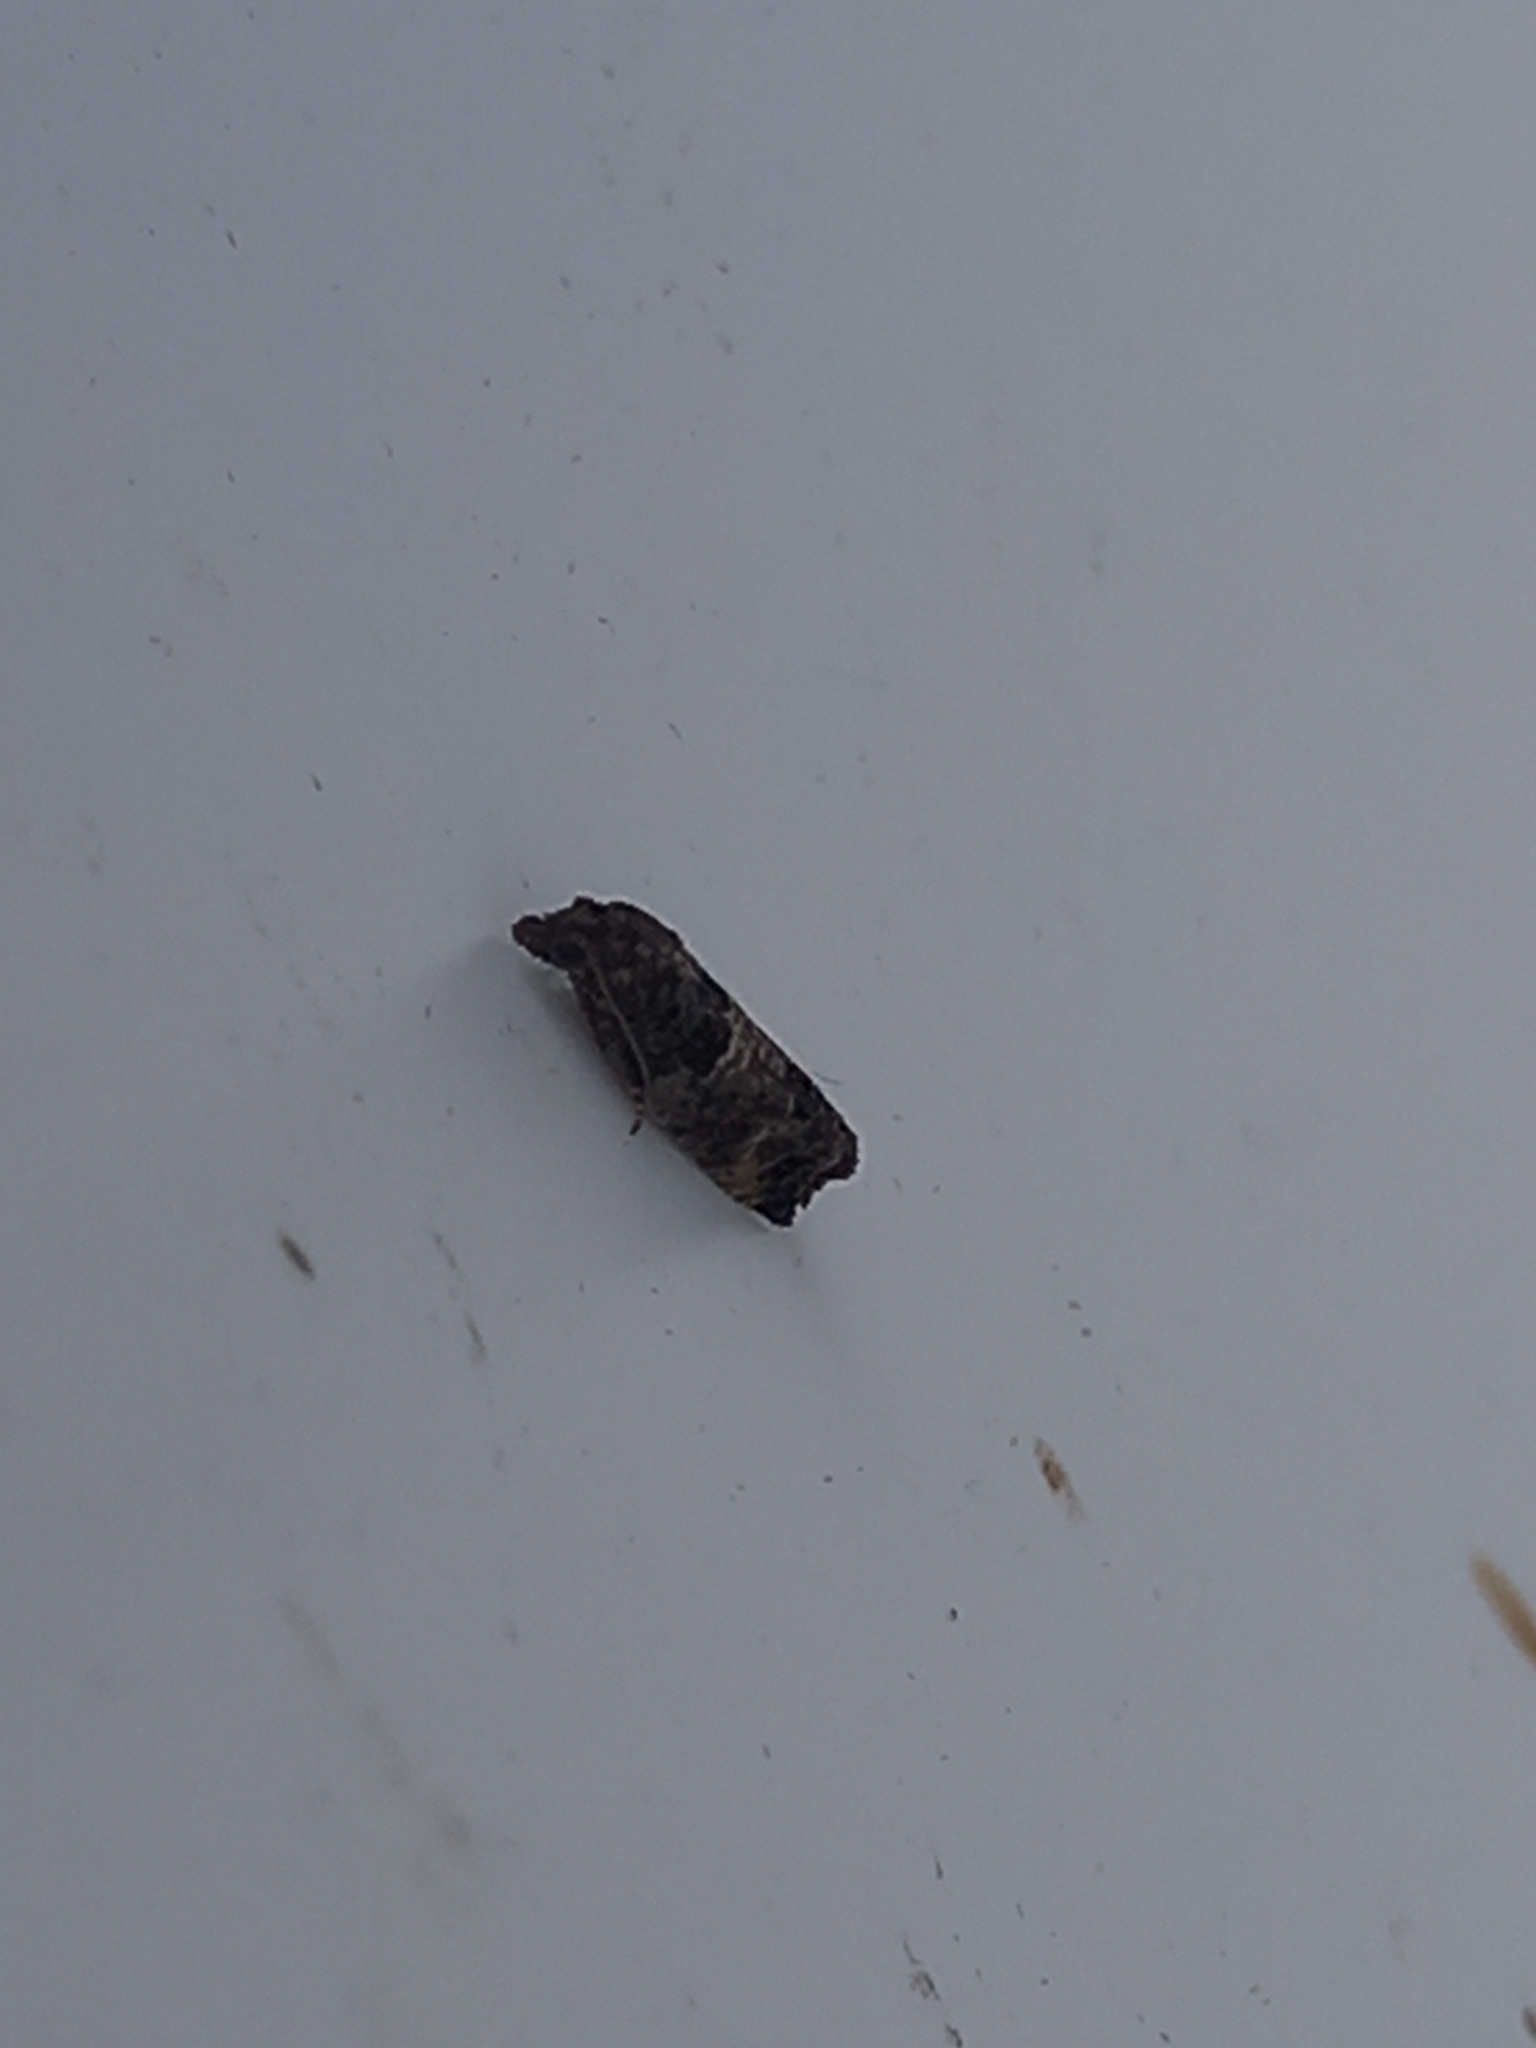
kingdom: Animalia
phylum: Arthropoda
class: Insecta
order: Lepidoptera
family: Tortricidae
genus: Spilonota
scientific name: Spilonota ocellana
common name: Bud moth
